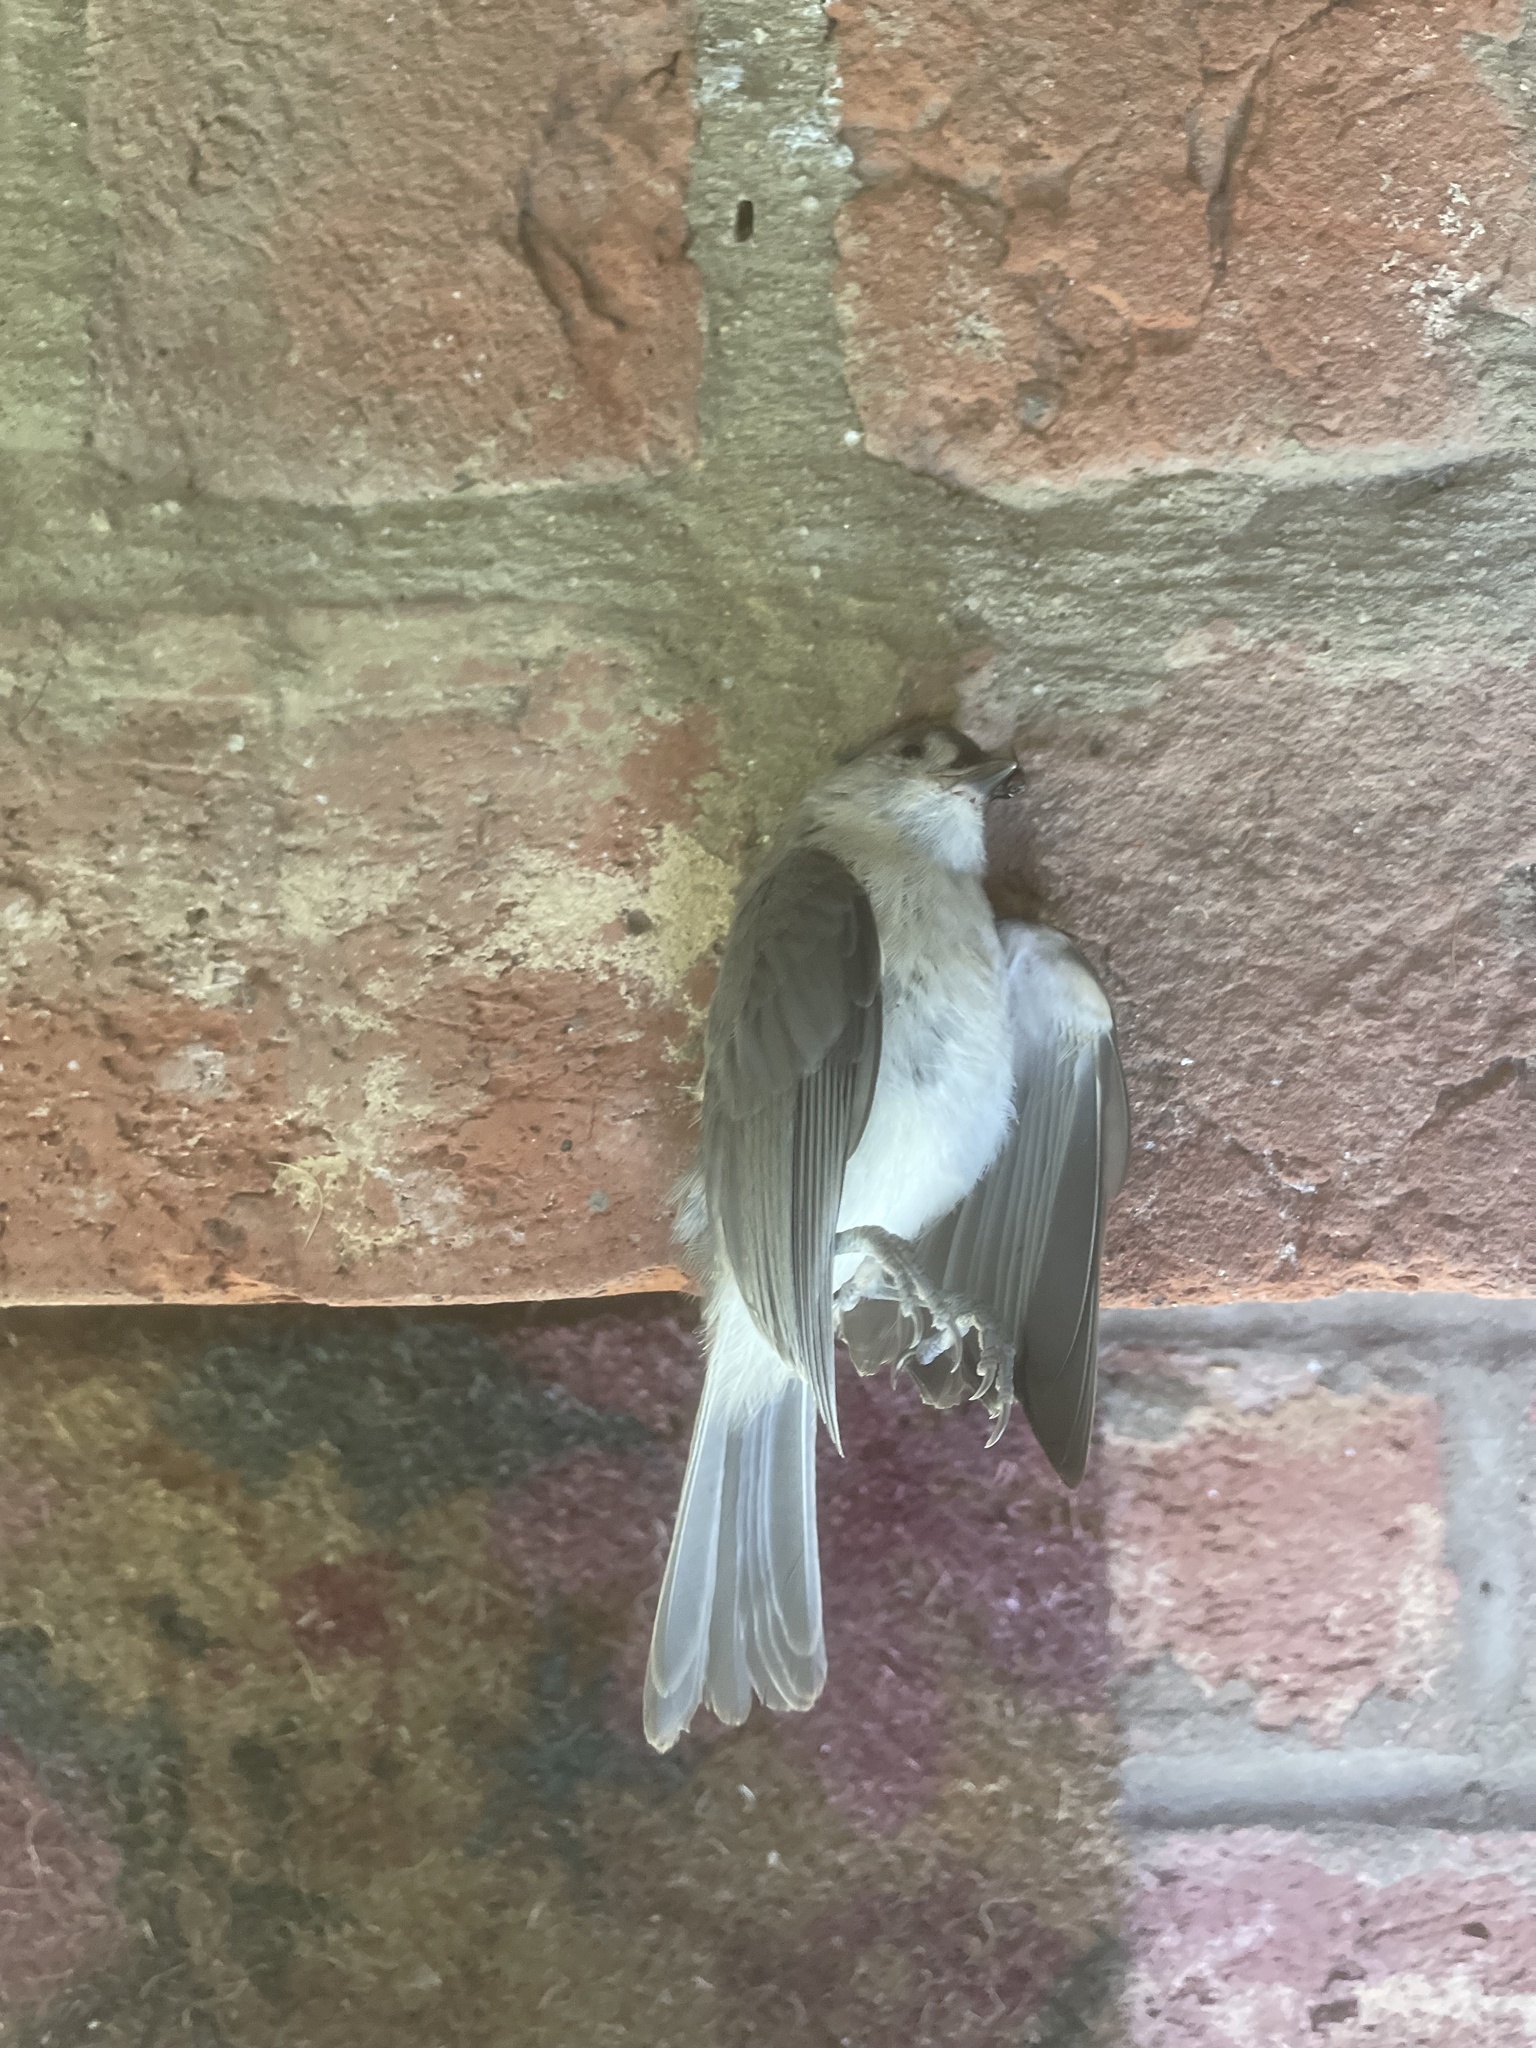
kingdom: Animalia
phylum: Chordata
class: Aves
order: Passeriformes
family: Paridae
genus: Baeolophus
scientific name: Baeolophus bicolor
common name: Tufted titmouse
